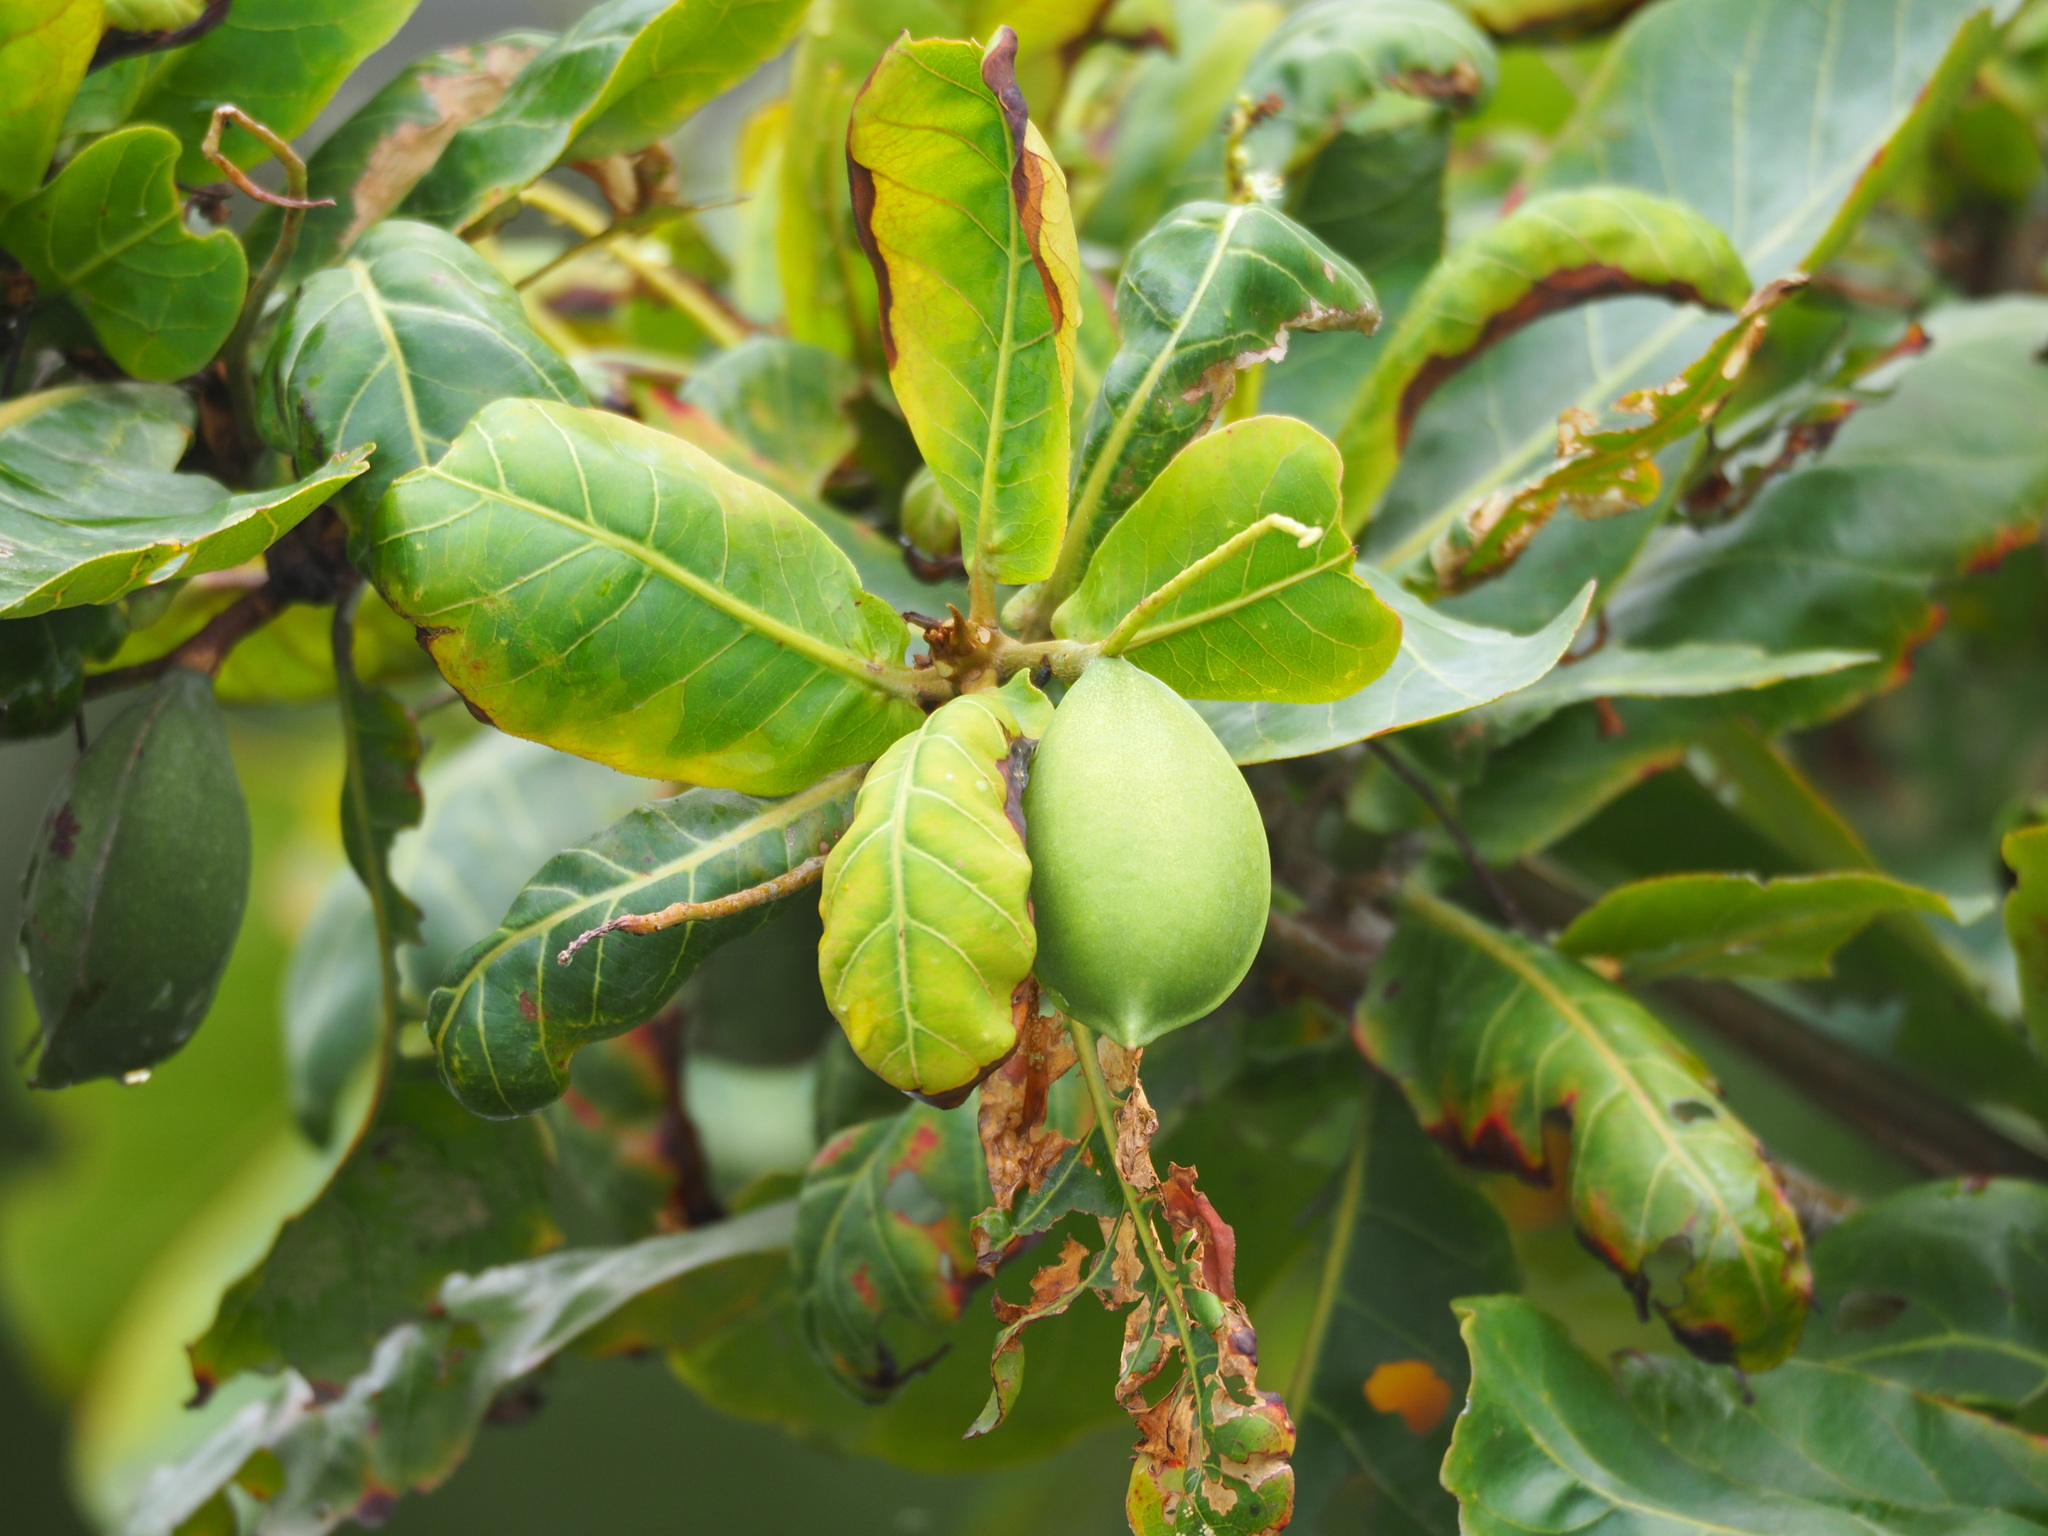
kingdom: Plantae
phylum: Tracheophyta
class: Magnoliopsida
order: Myrtales
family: Combretaceae
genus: Terminalia
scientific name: Terminalia catappa
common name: Tropical almond
